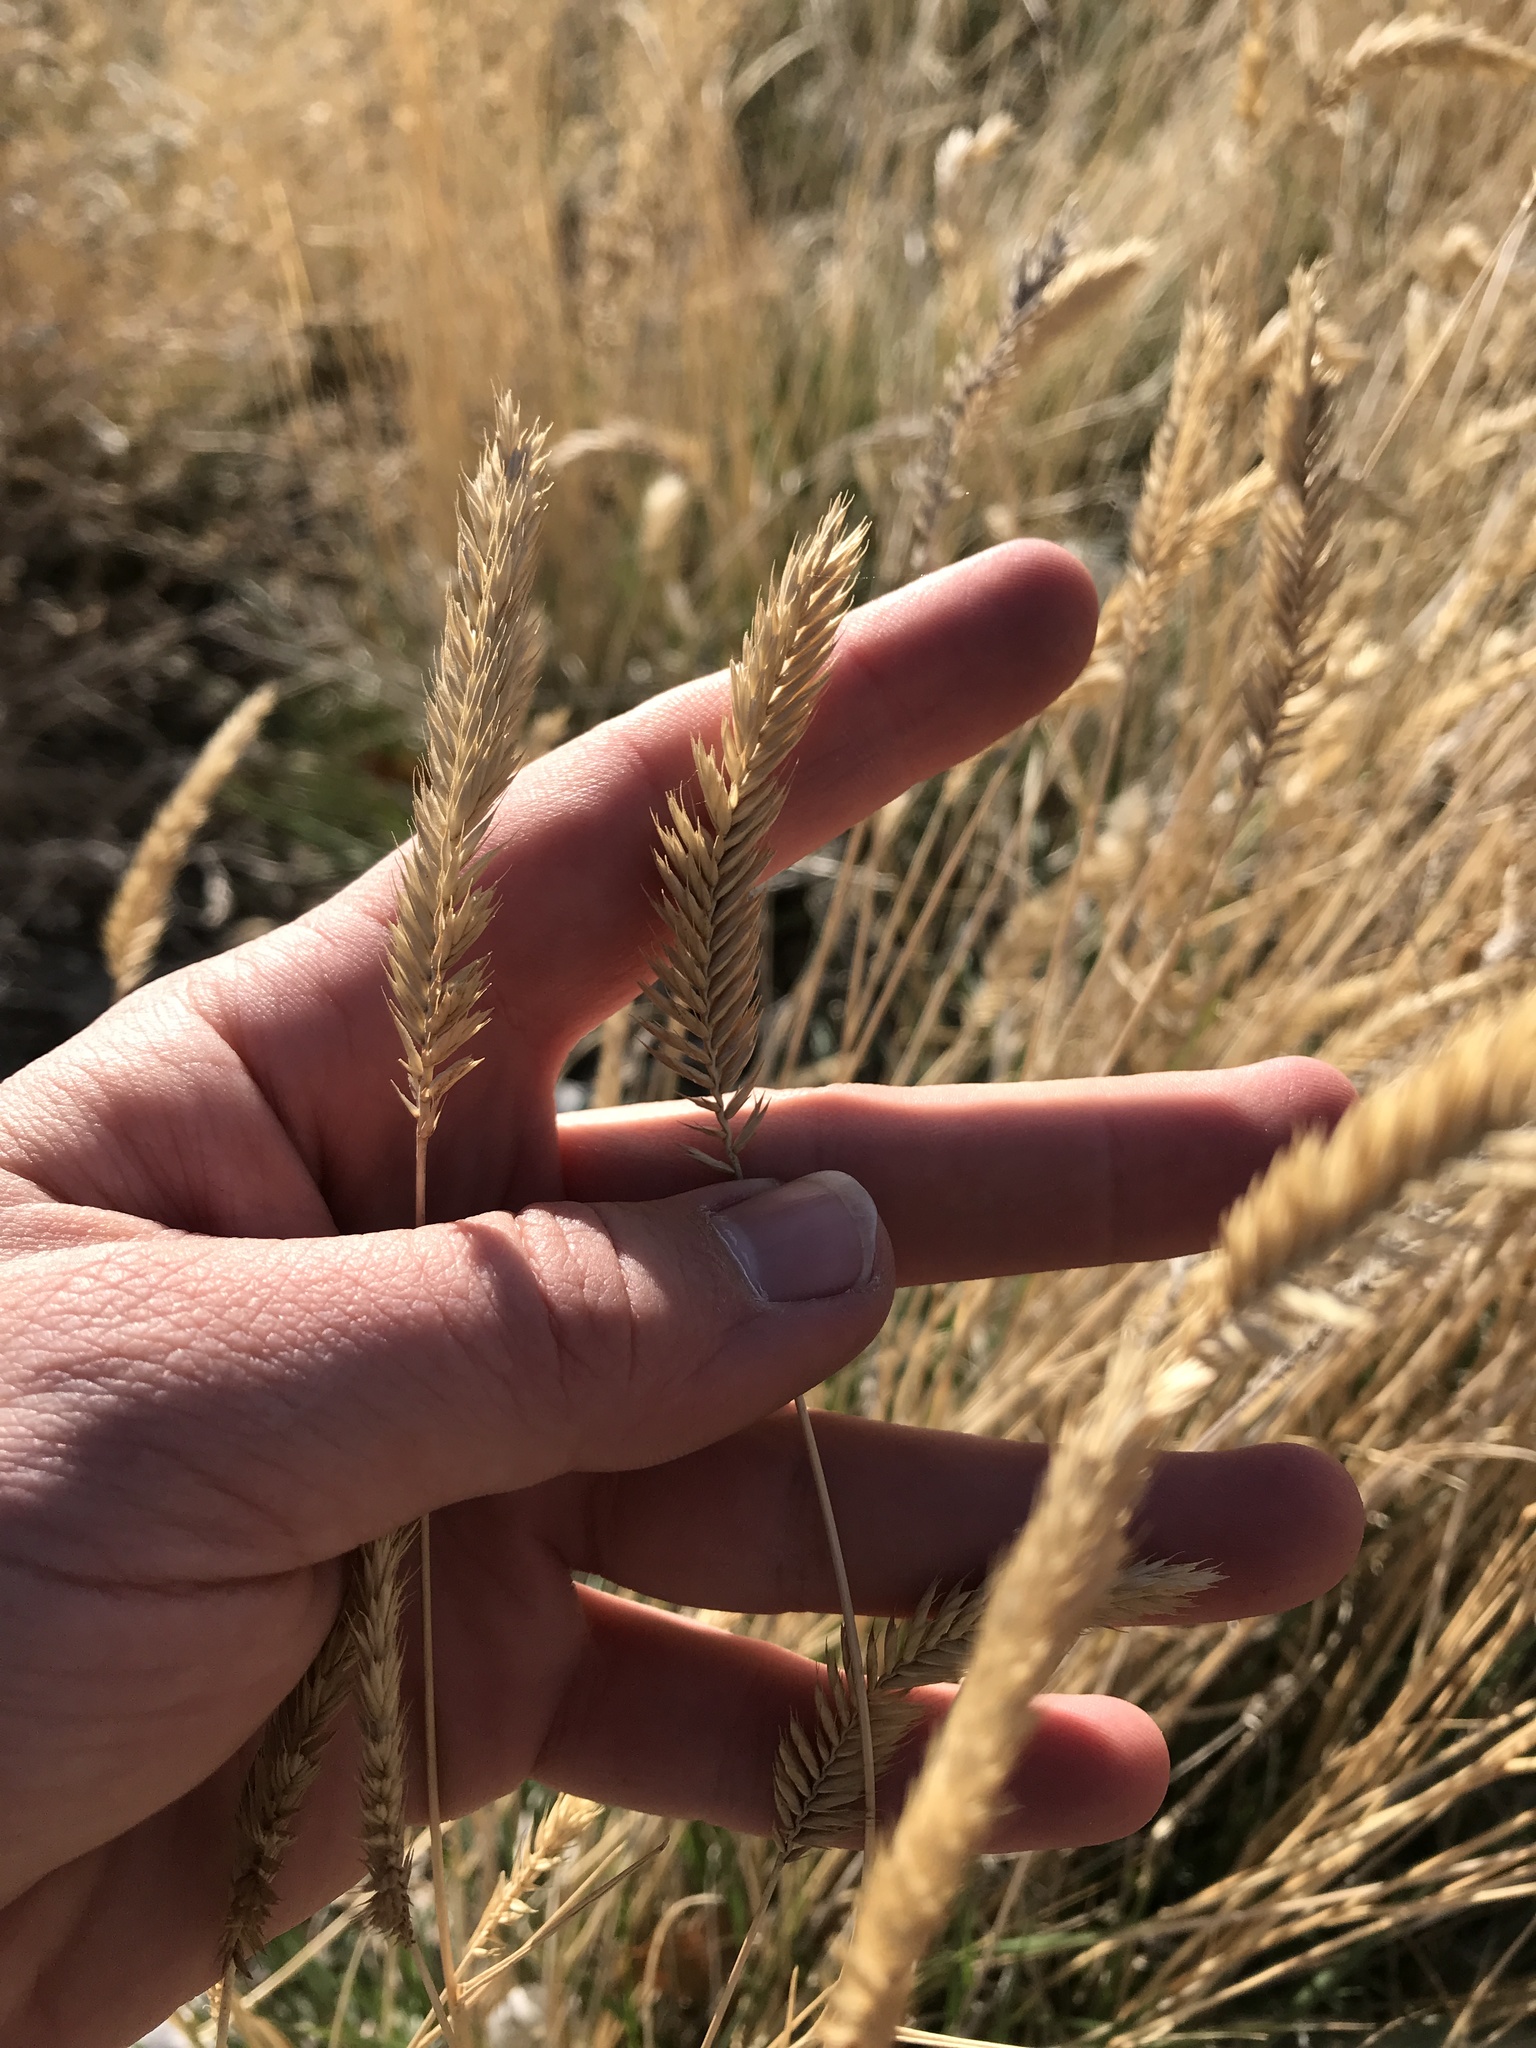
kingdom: Plantae
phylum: Tracheophyta
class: Liliopsida
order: Poales
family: Poaceae
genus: Agropyron
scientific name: Agropyron cristatum
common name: Crested wheatgrass
